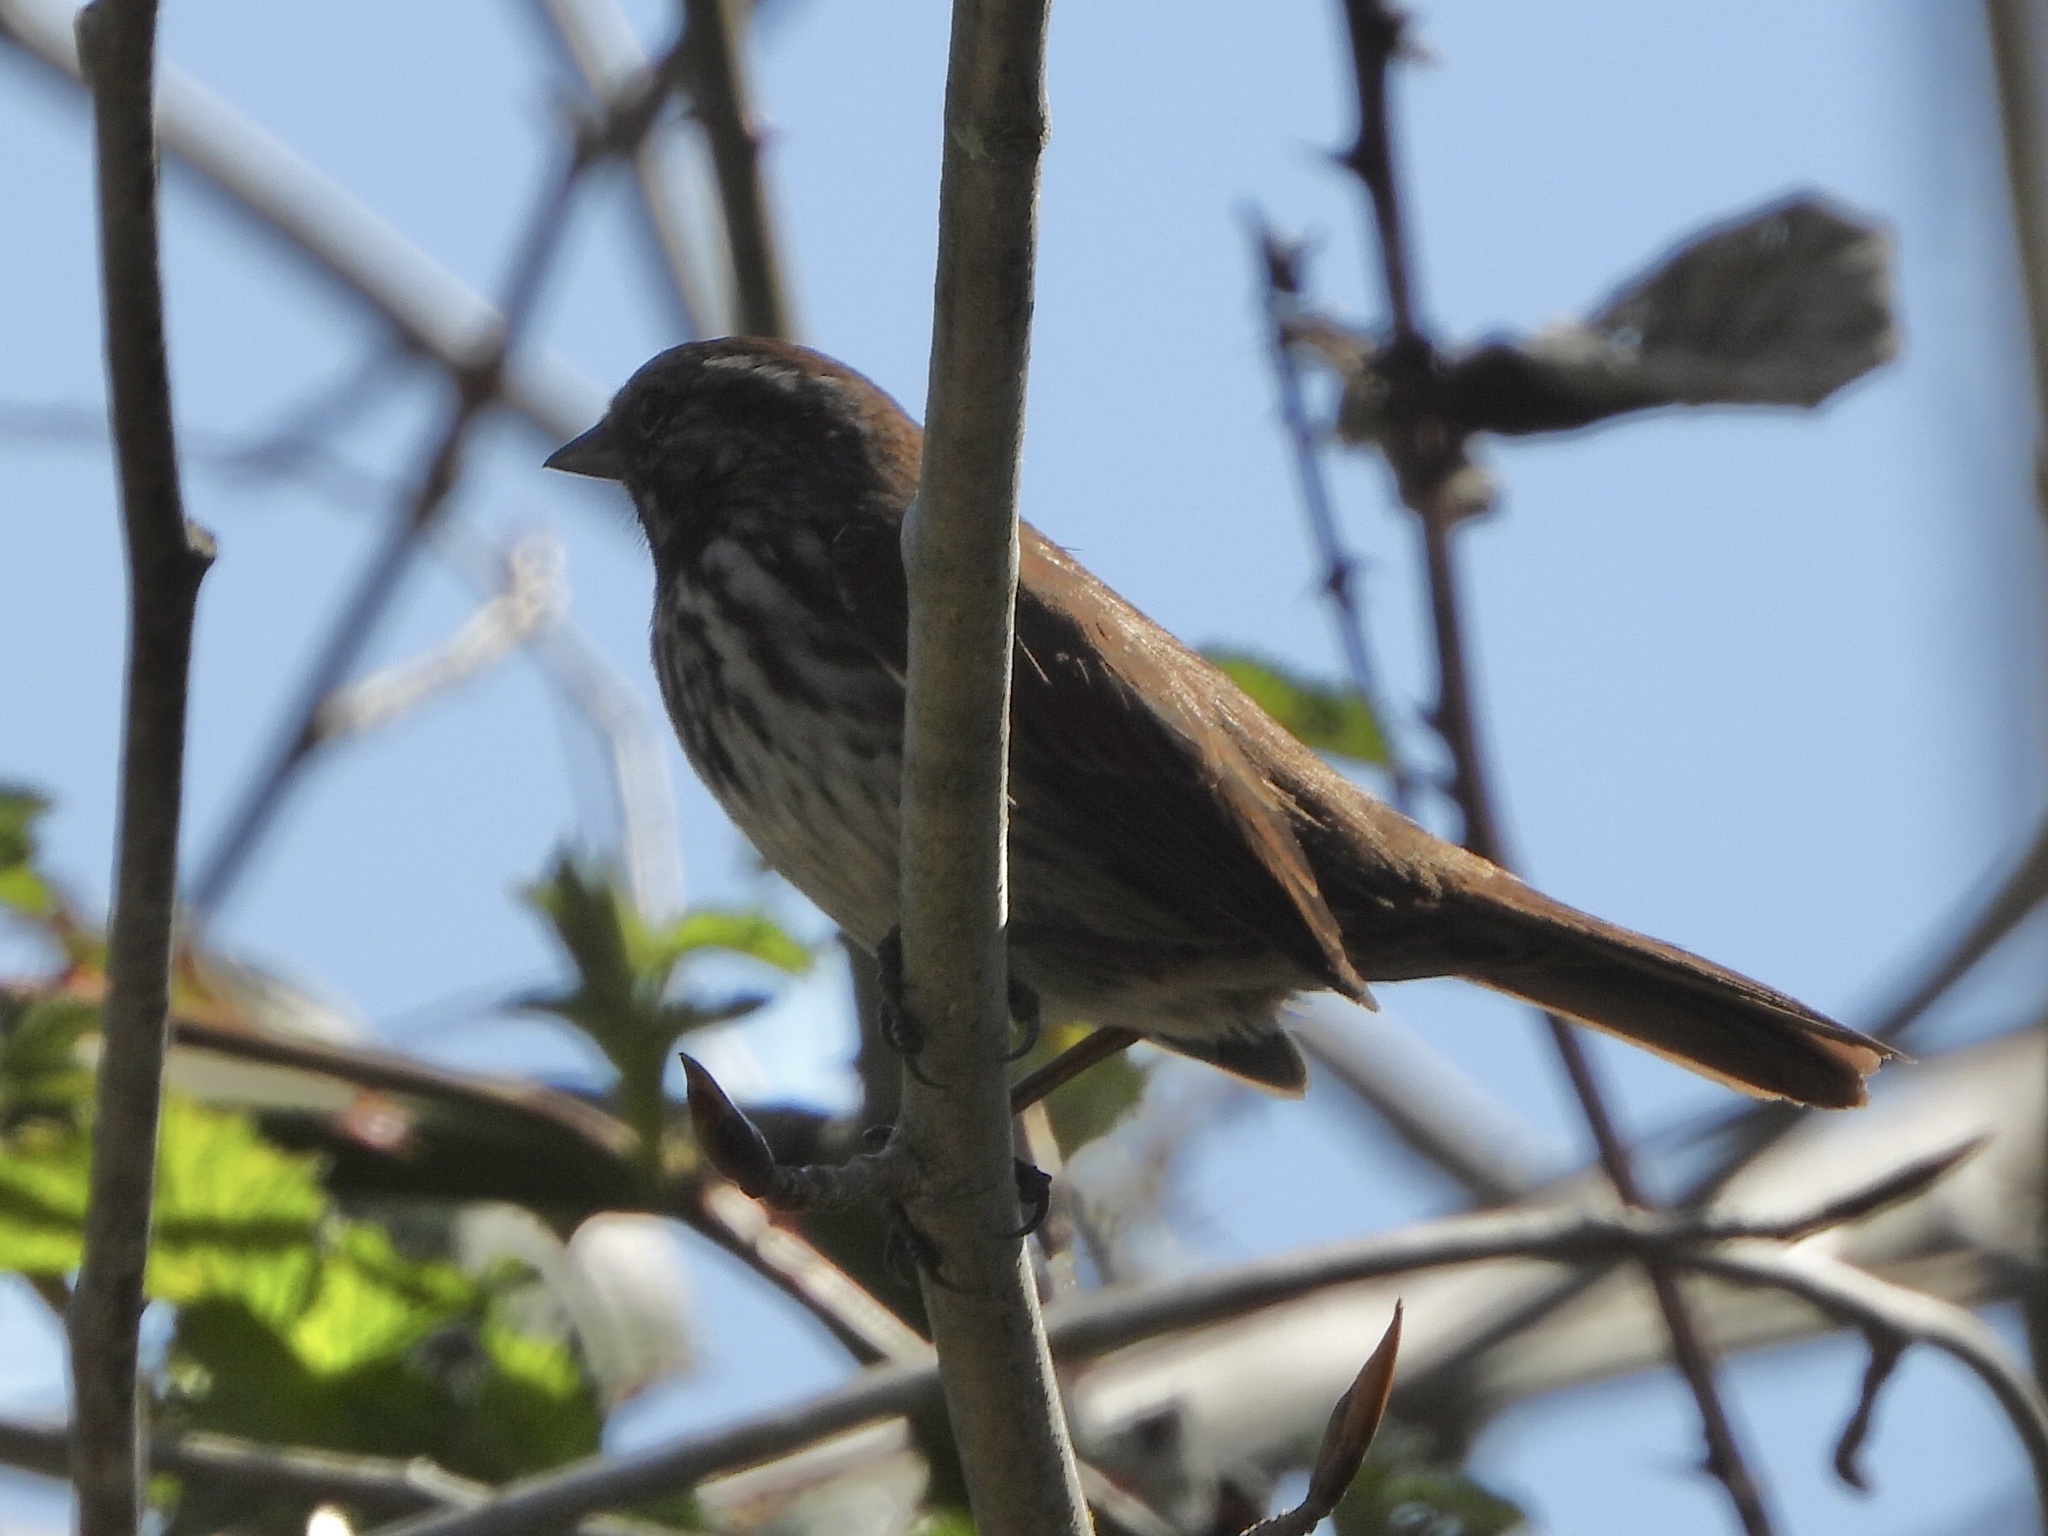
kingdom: Animalia
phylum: Chordata
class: Aves
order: Passeriformes
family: Passerellidae
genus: Melospiza
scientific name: Melospiza melodia
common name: Song sparrow
